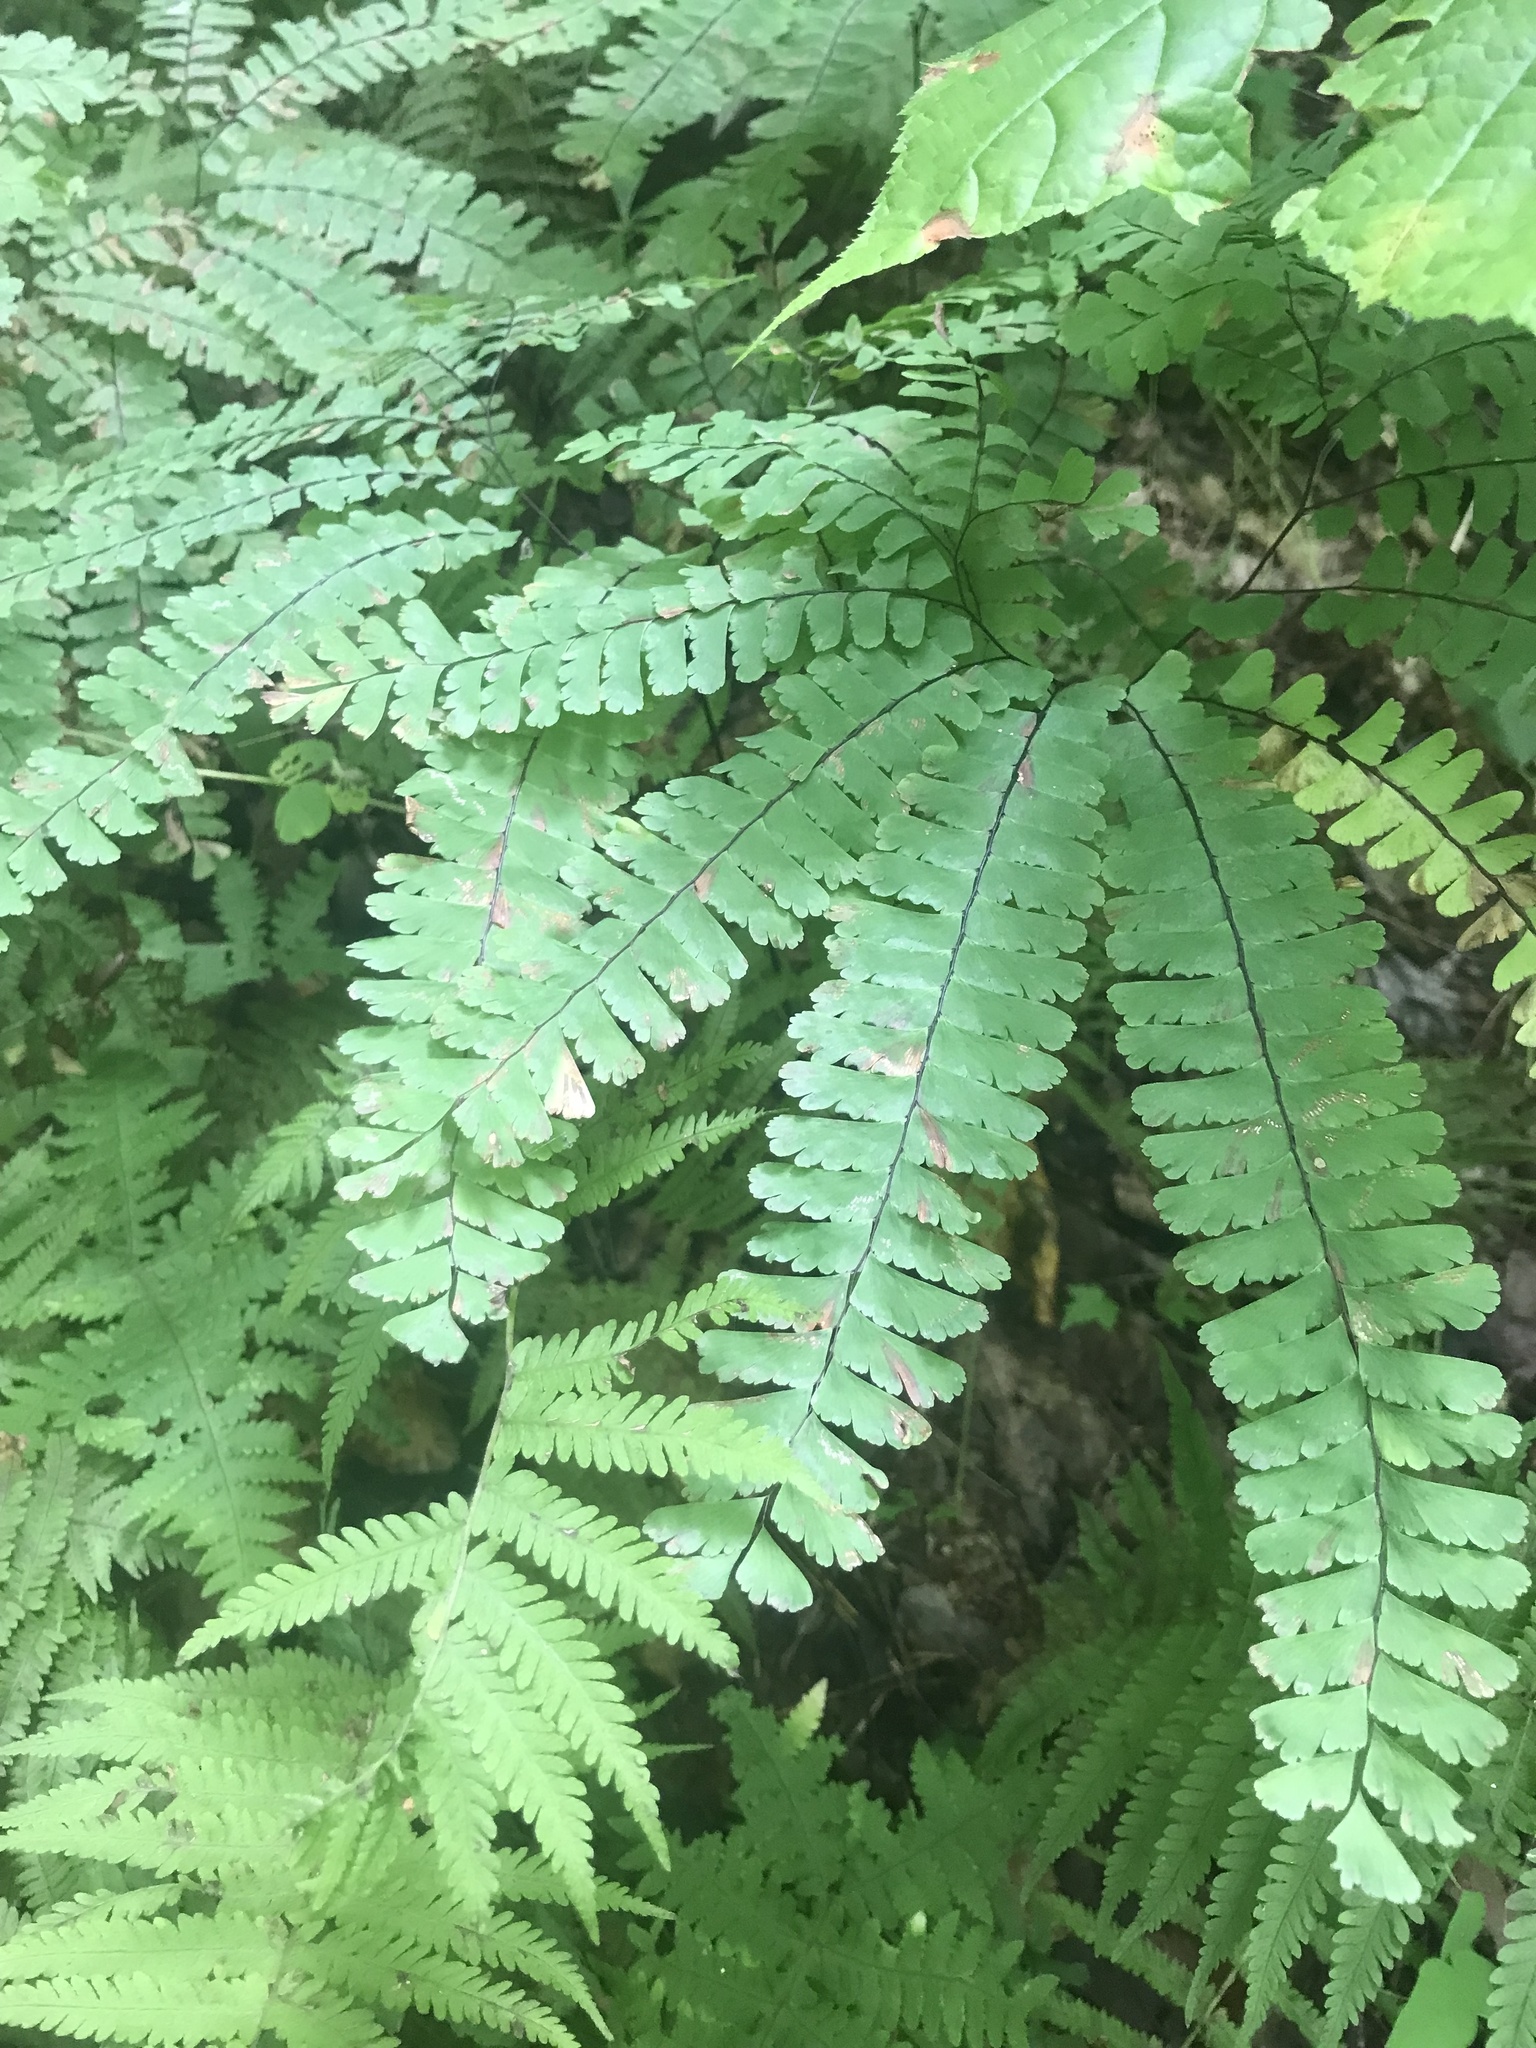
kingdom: Plantae
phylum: Tracheophyta
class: Polypodiopsida
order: Polypodiales
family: Pteridaceae
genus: Adiantum
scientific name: Adiantum pedatum
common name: Five-finger fern
